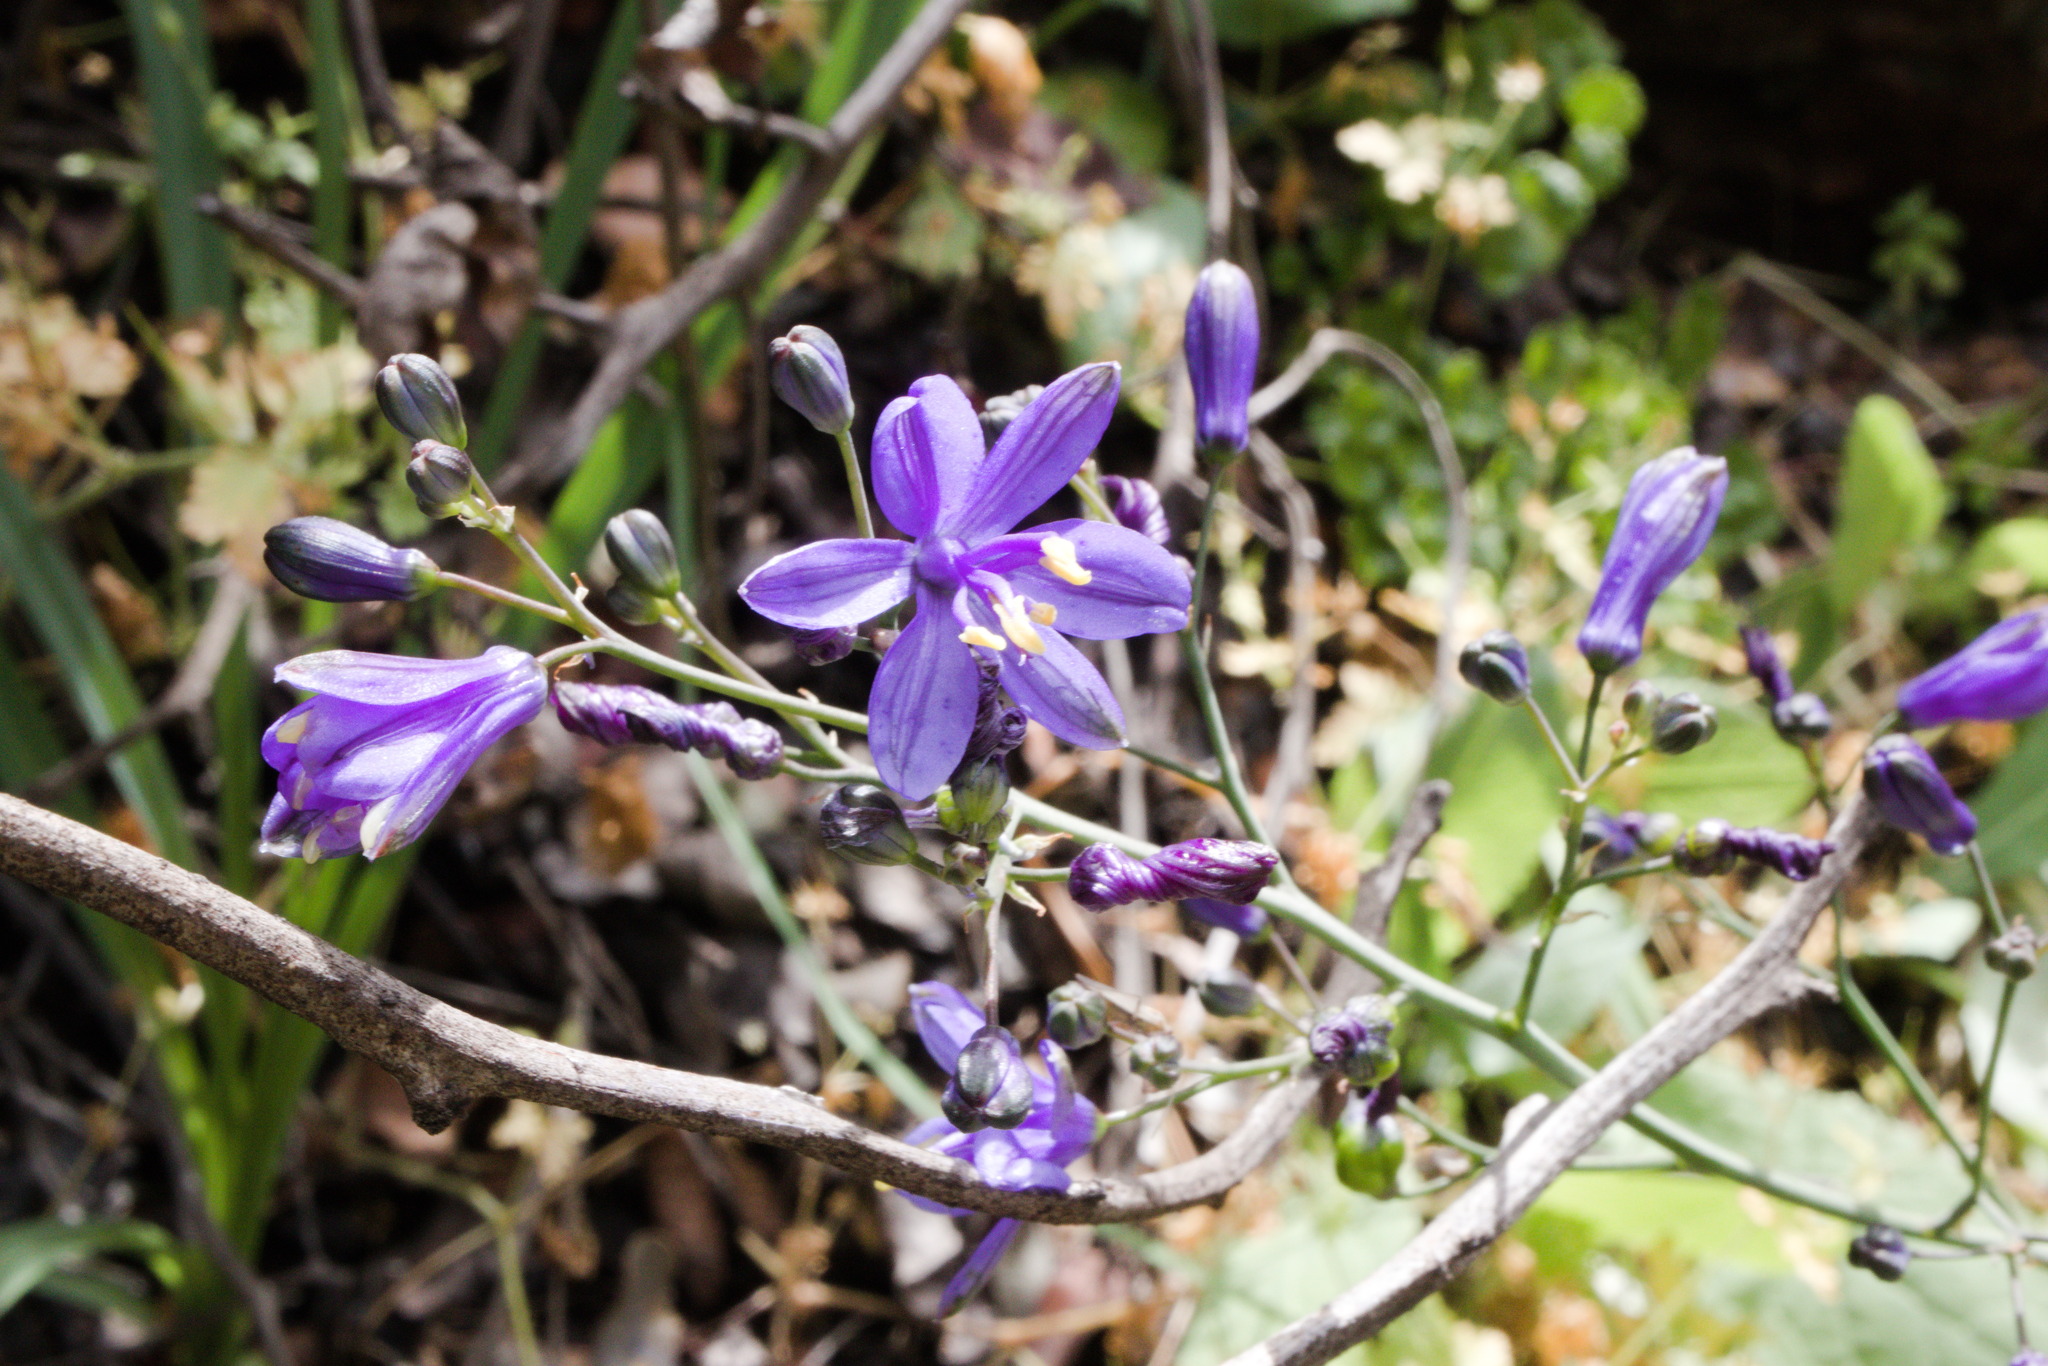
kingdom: Plantae
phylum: Tracheophyta
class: Liliopsida
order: Asparagales
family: Asphodelaceae
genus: Pasithea
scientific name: Pasithea caerulea
